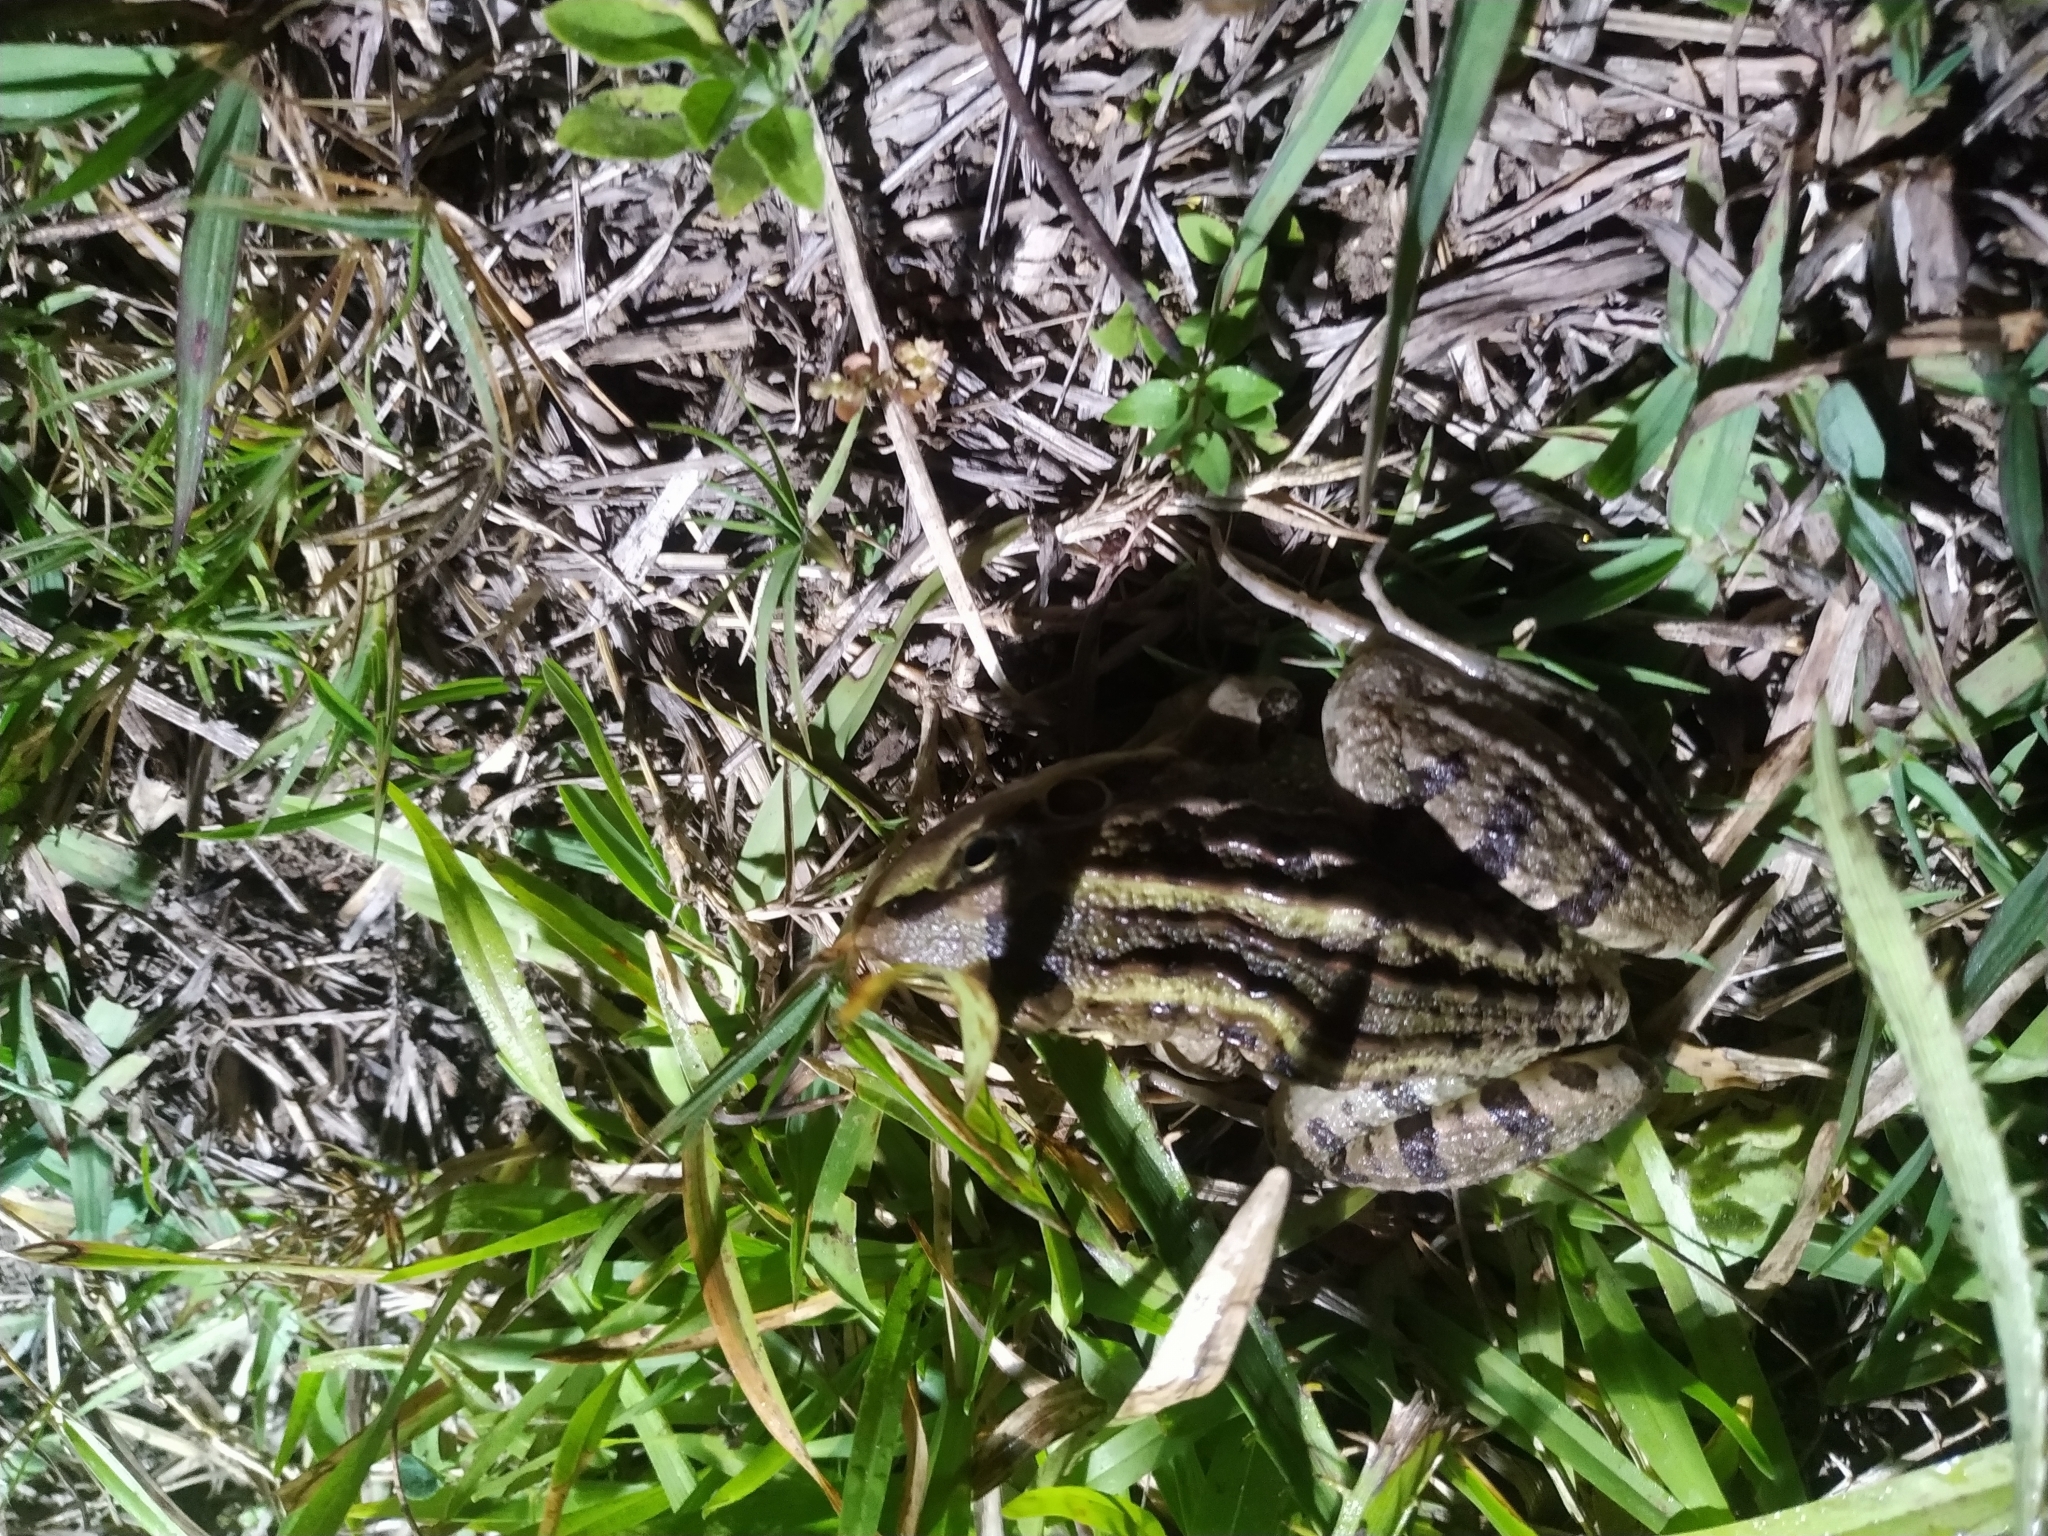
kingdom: Animalia
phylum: Chordata
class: Amphibia
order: Anura
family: Leptodactylidae
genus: Leptodactylus
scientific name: Leptodactylus luctator
